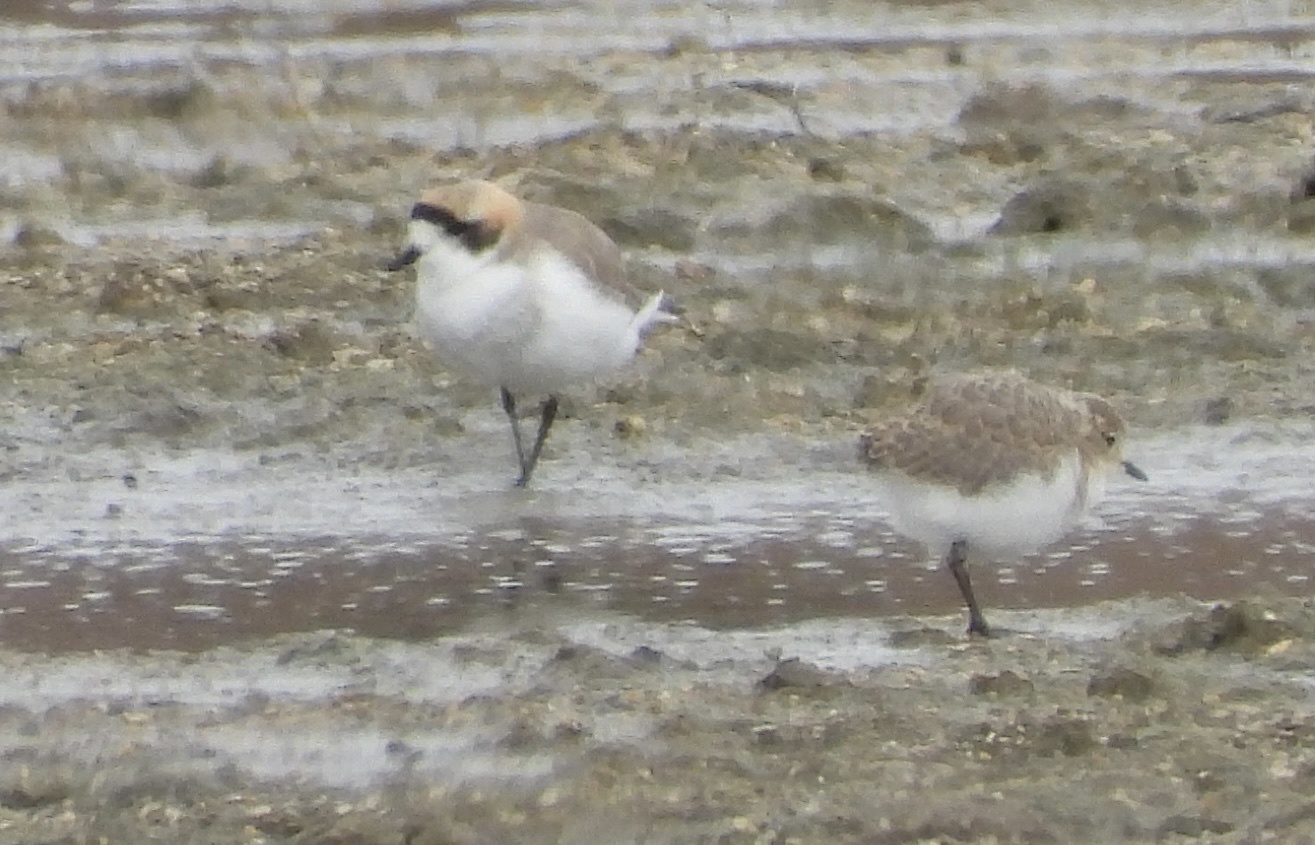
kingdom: Animalia
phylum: Chordata
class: Aves
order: Charadriiformes
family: Charadriidae
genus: Anarhynchus
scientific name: Anarhynchus
